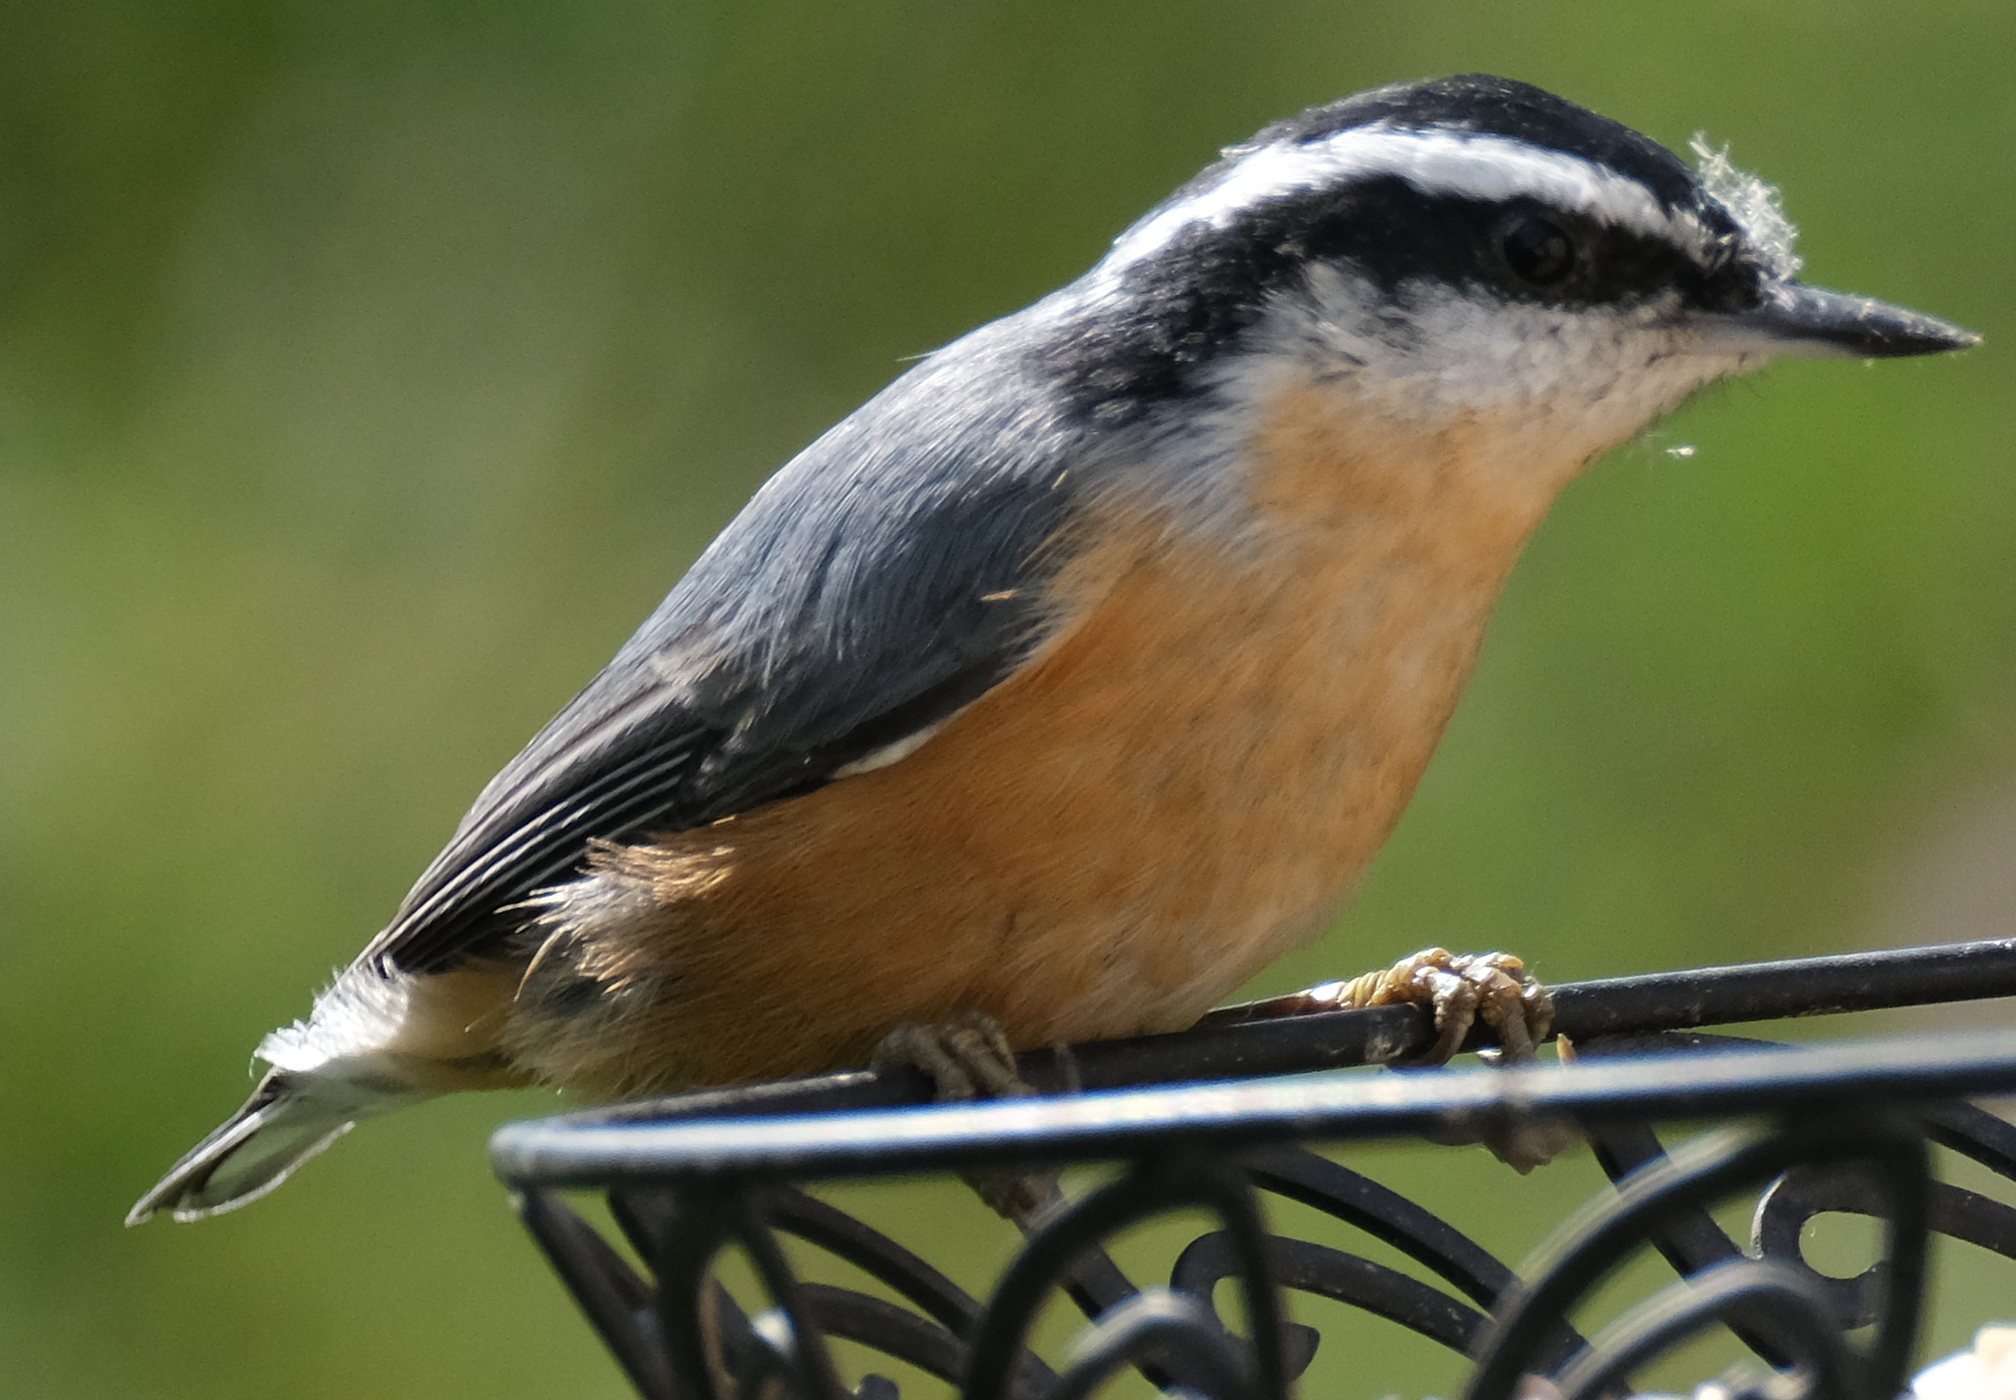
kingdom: Animalia
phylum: Chordata
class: Aves
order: Passeriformes
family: Sittidae
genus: Sitta
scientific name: Sitta canadensis
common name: Red-breasted nuthatch
